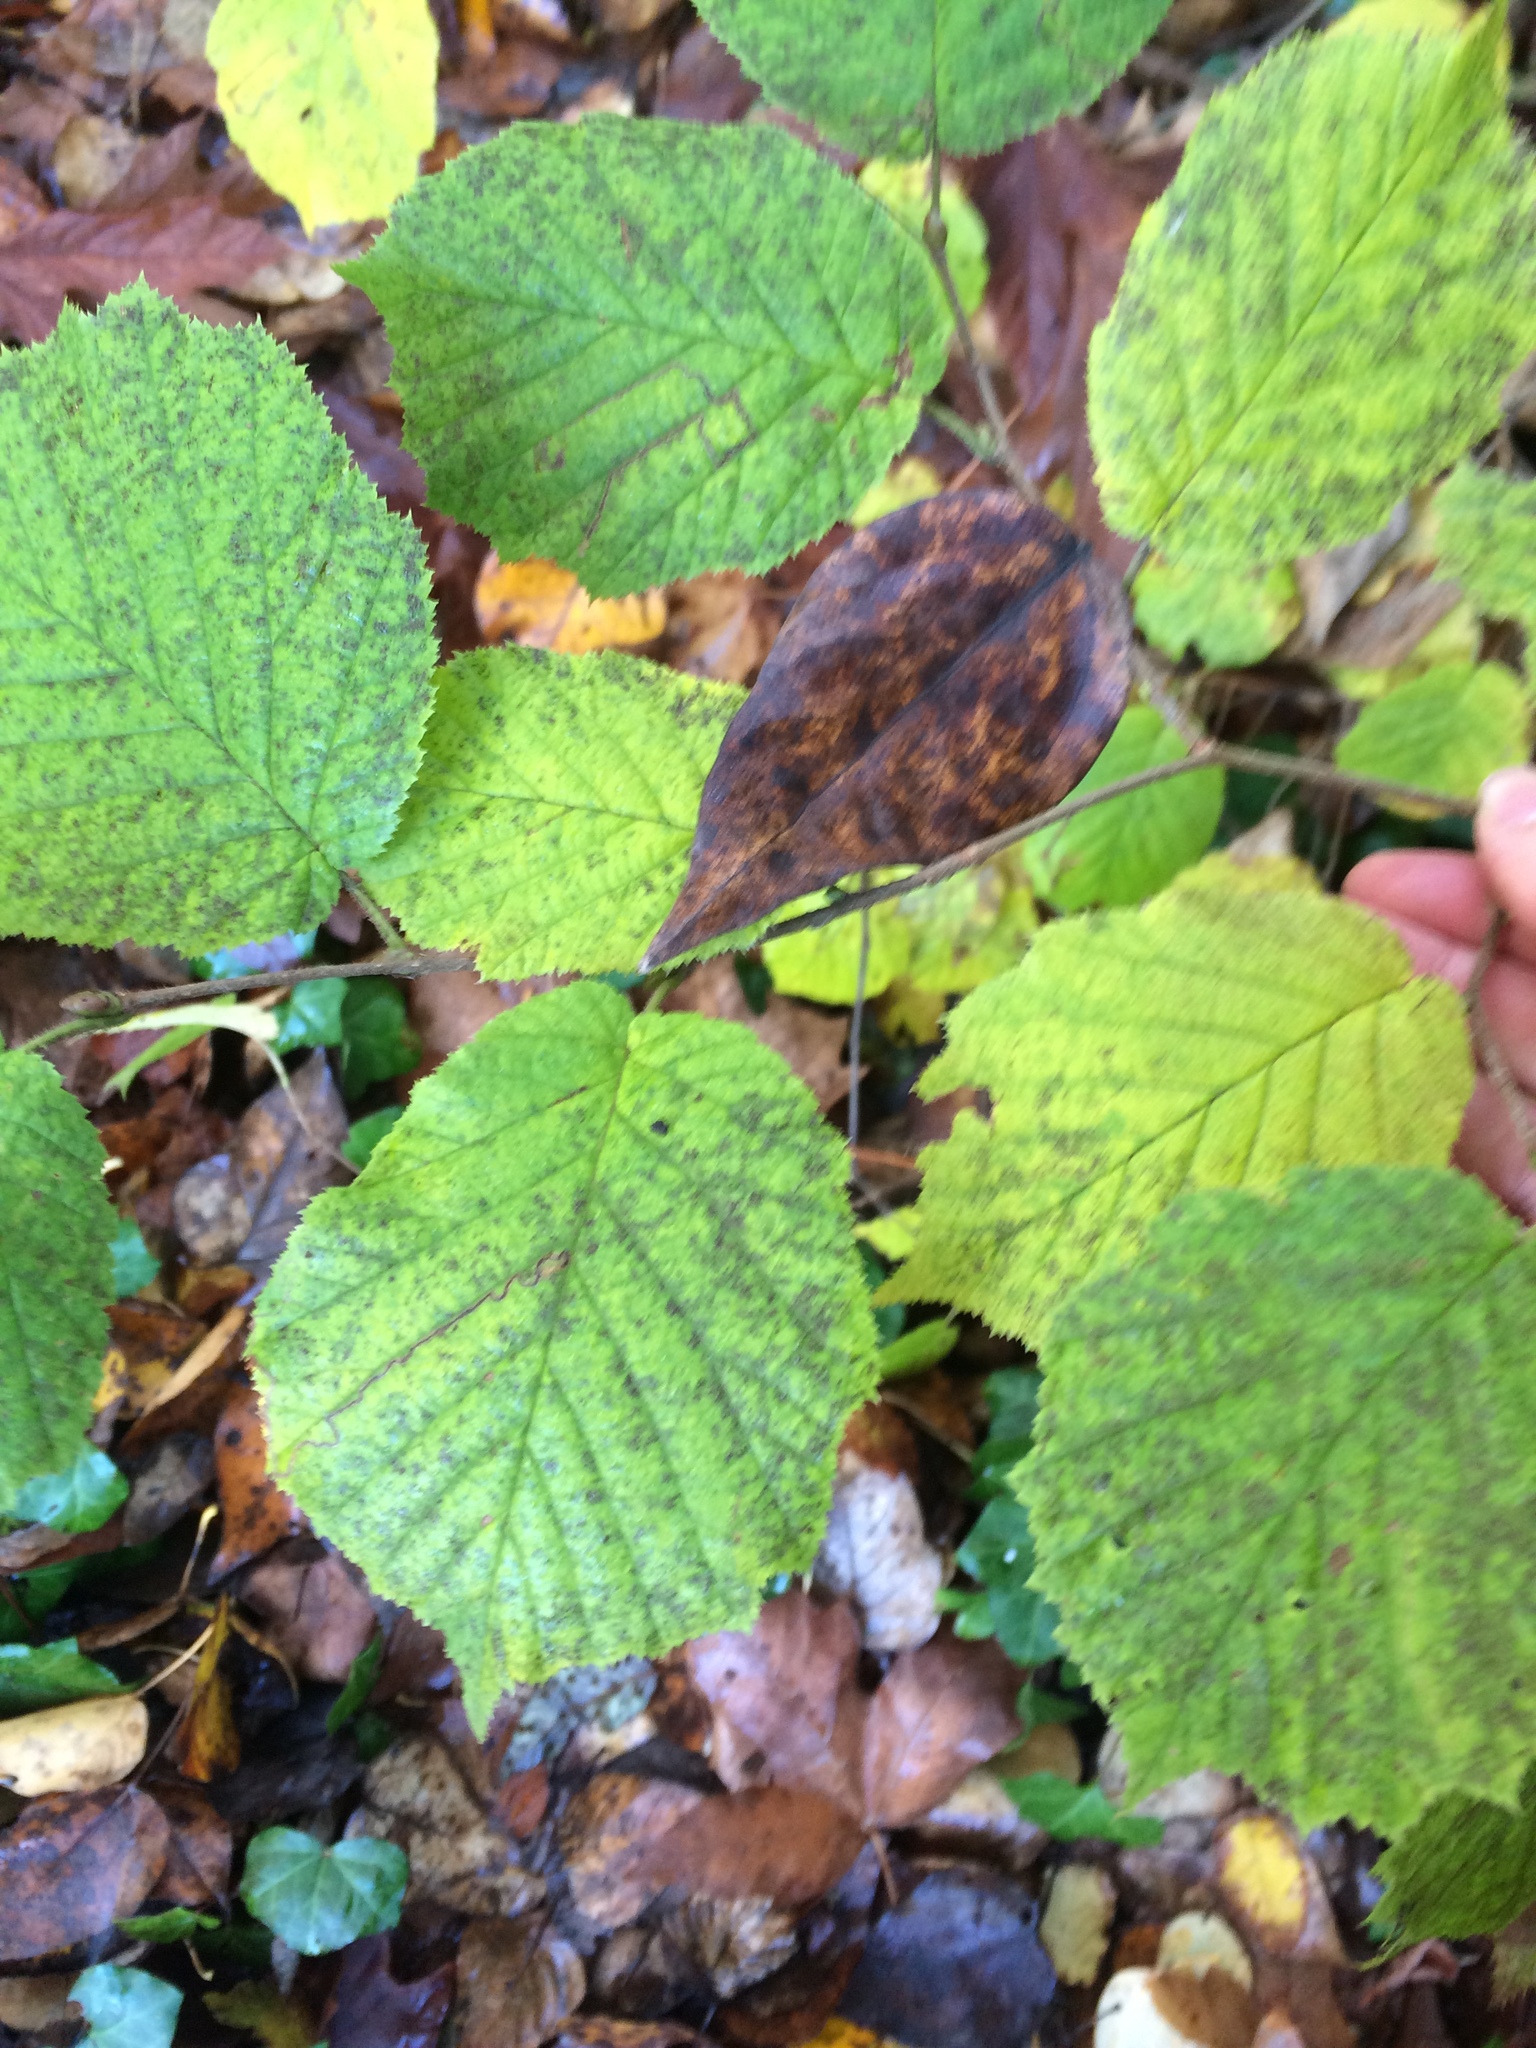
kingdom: Plantae
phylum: Tracheophyta
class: Magnoliopsida
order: Fagales
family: Betulaceae
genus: Corylus
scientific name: Corylus cornuta
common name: Beaked hazel
